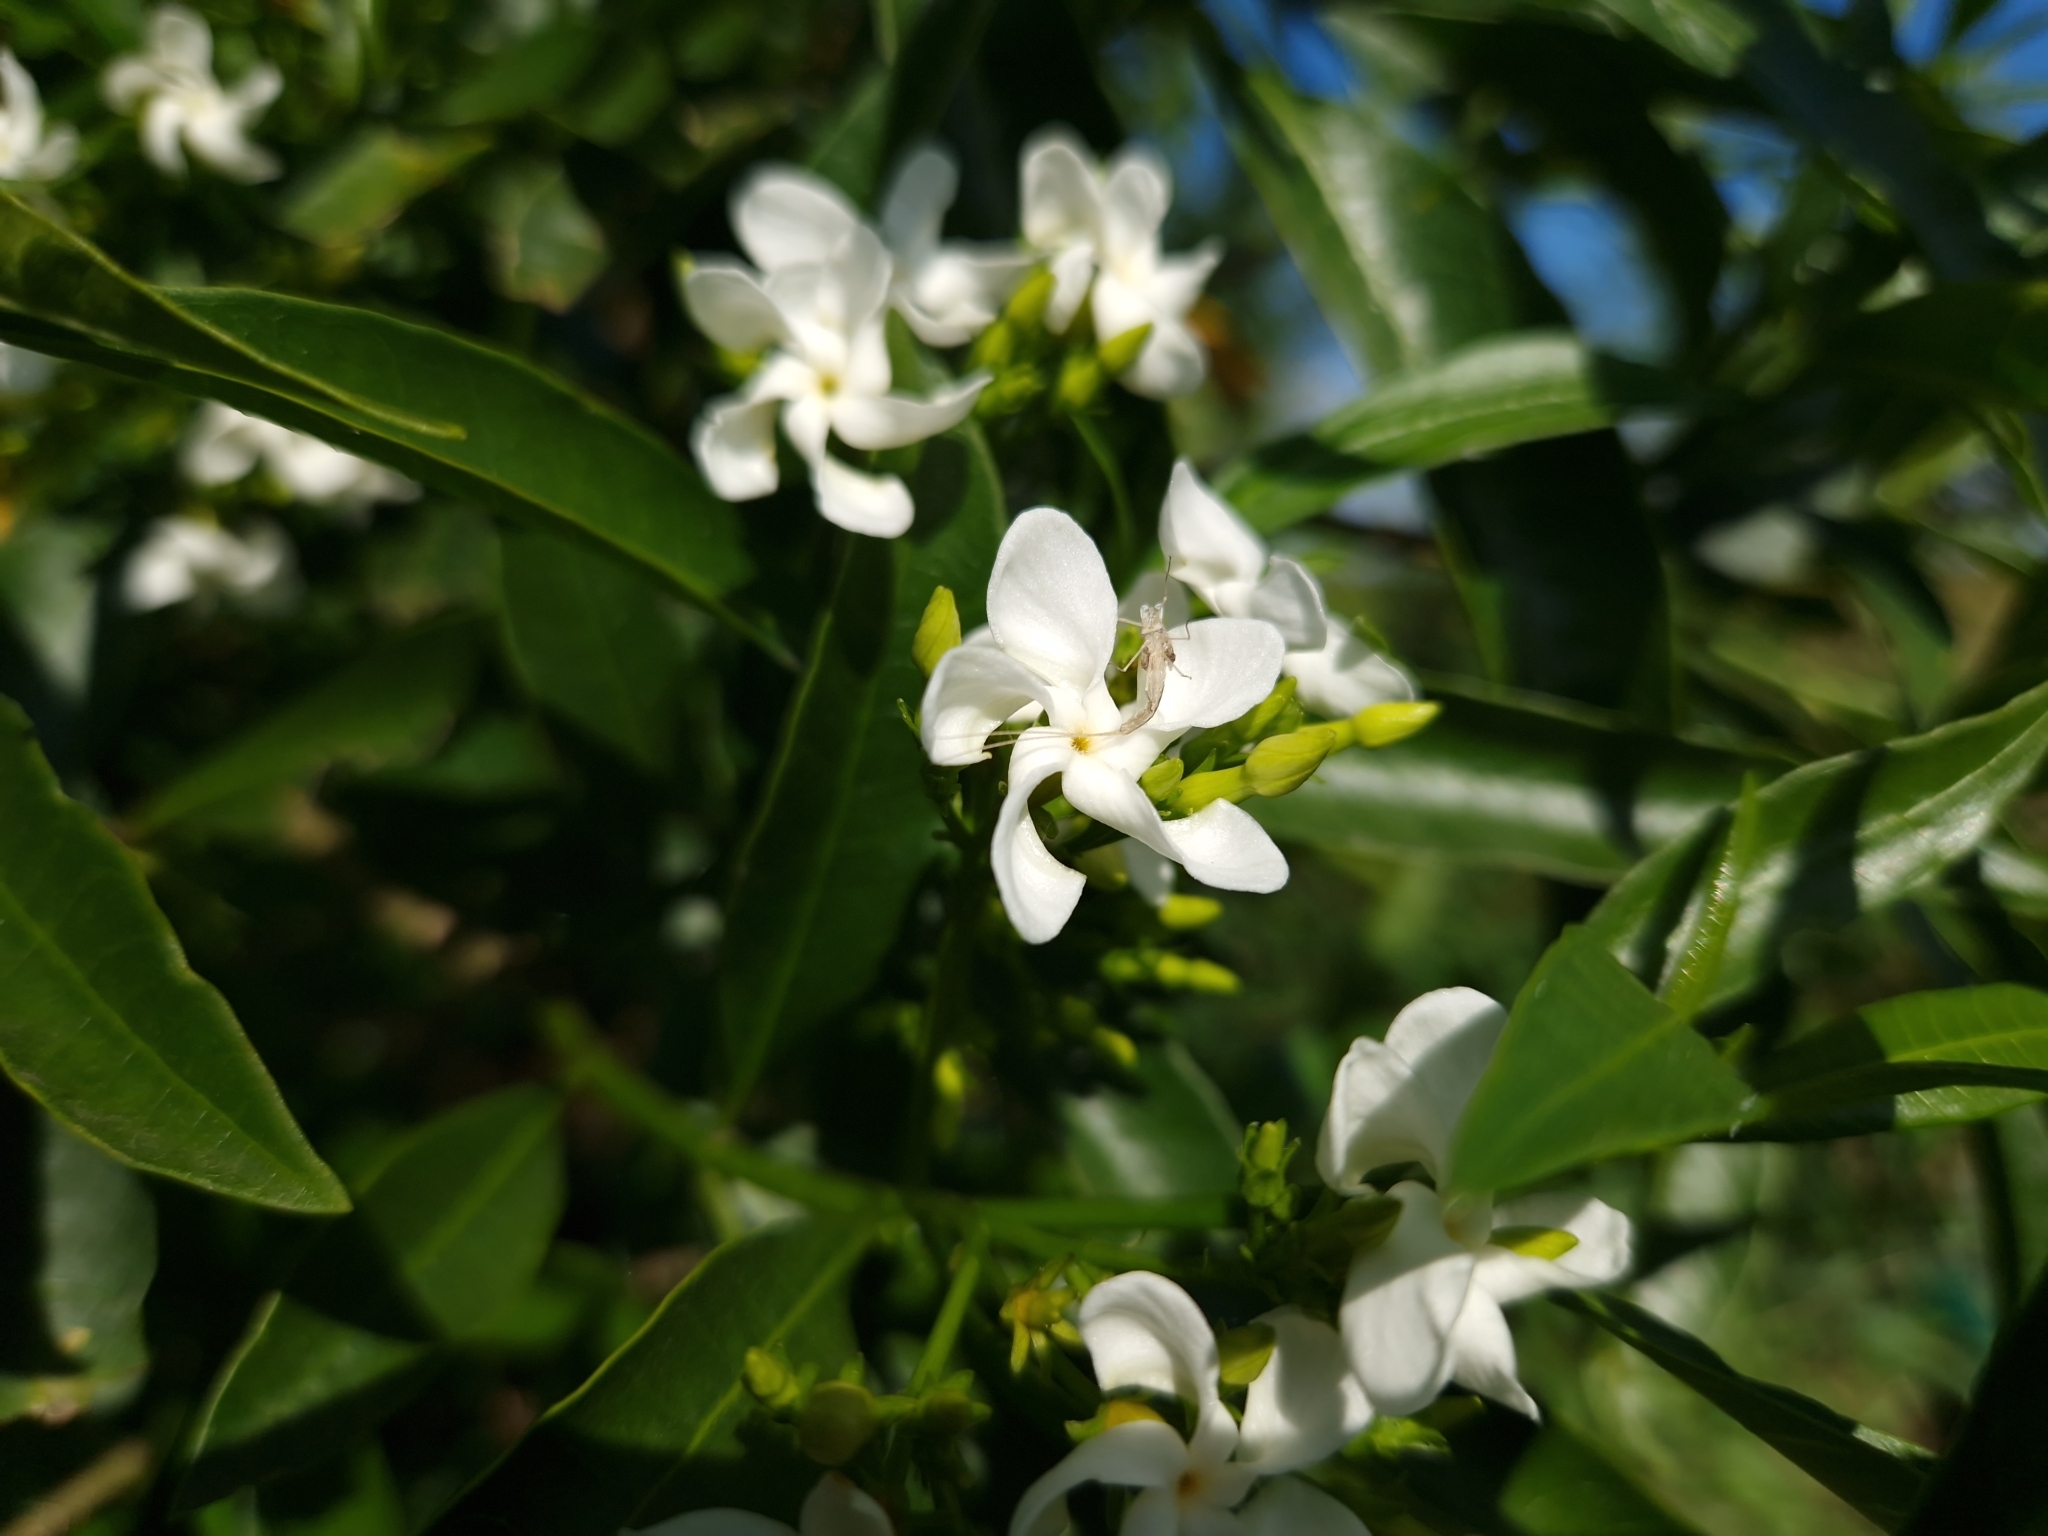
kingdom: Plantae
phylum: Tracheophyta
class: Magnoliopsida
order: Gentianales
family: Apocynaceae
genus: Tabernaemontana
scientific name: Tabernaemontana catharinensis
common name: Pinwheel-flower
